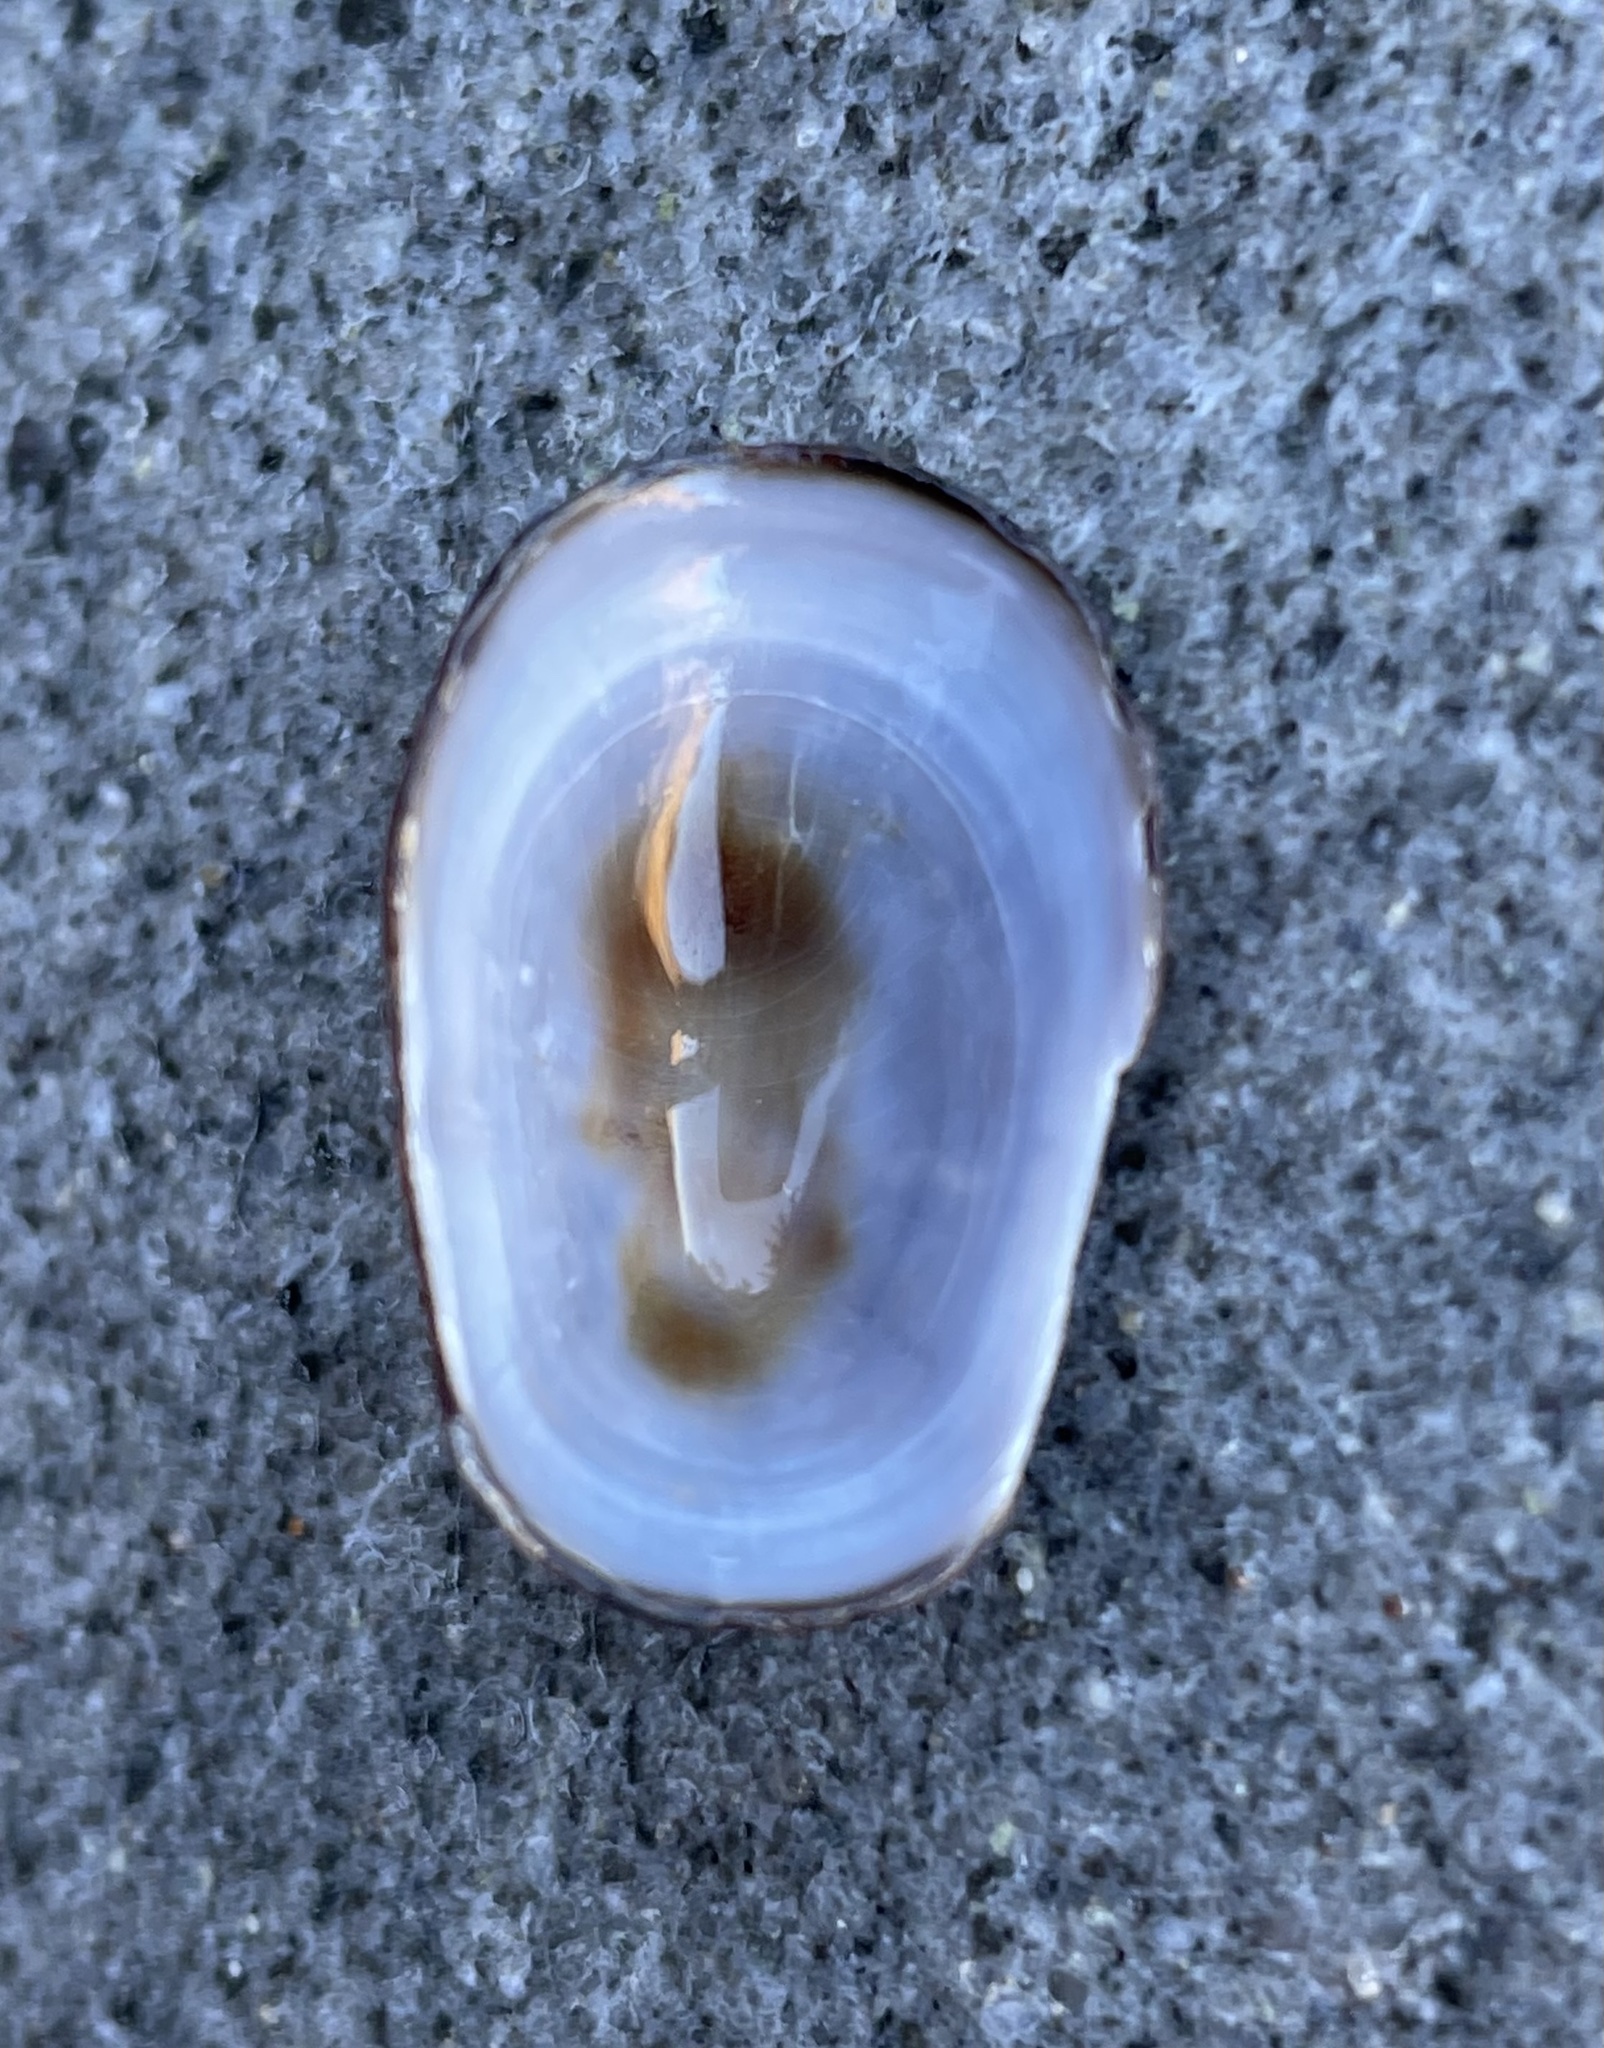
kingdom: Animalia
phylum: Mollusca
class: Gastropoda
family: Lottiidae
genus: Discurria
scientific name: Discurria insessa
